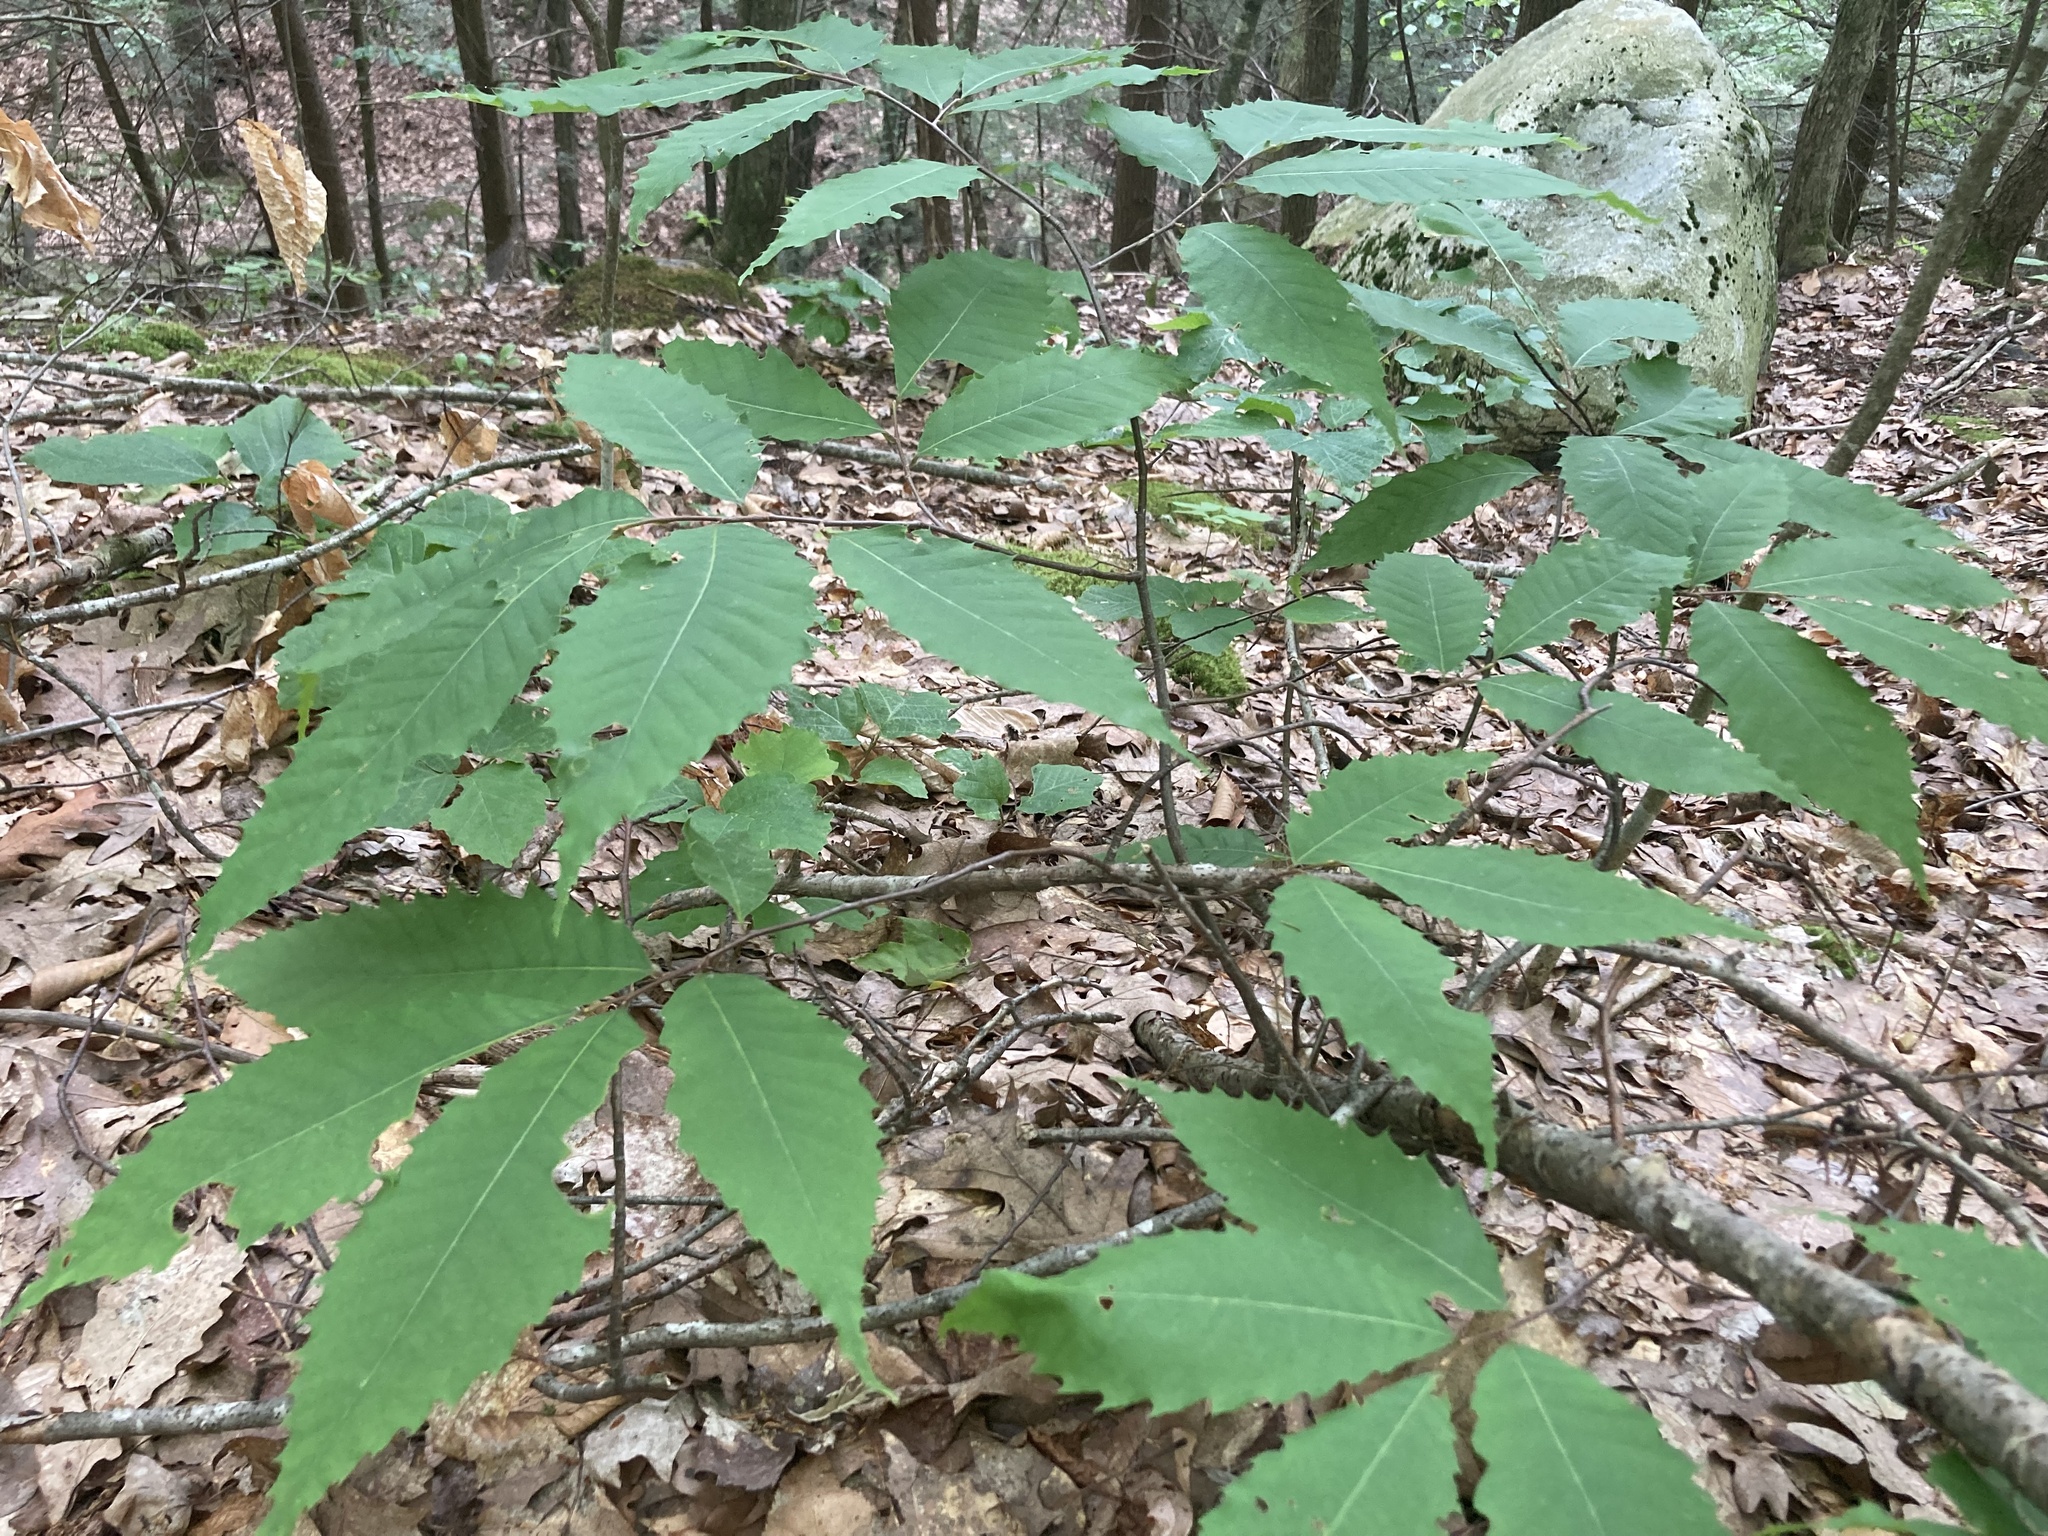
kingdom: Plantae
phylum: Tracheophyta
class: Magnoliopsida
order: Fagales
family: Fagaceae
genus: Castanea
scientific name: Castanea dentata
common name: American chestnut
